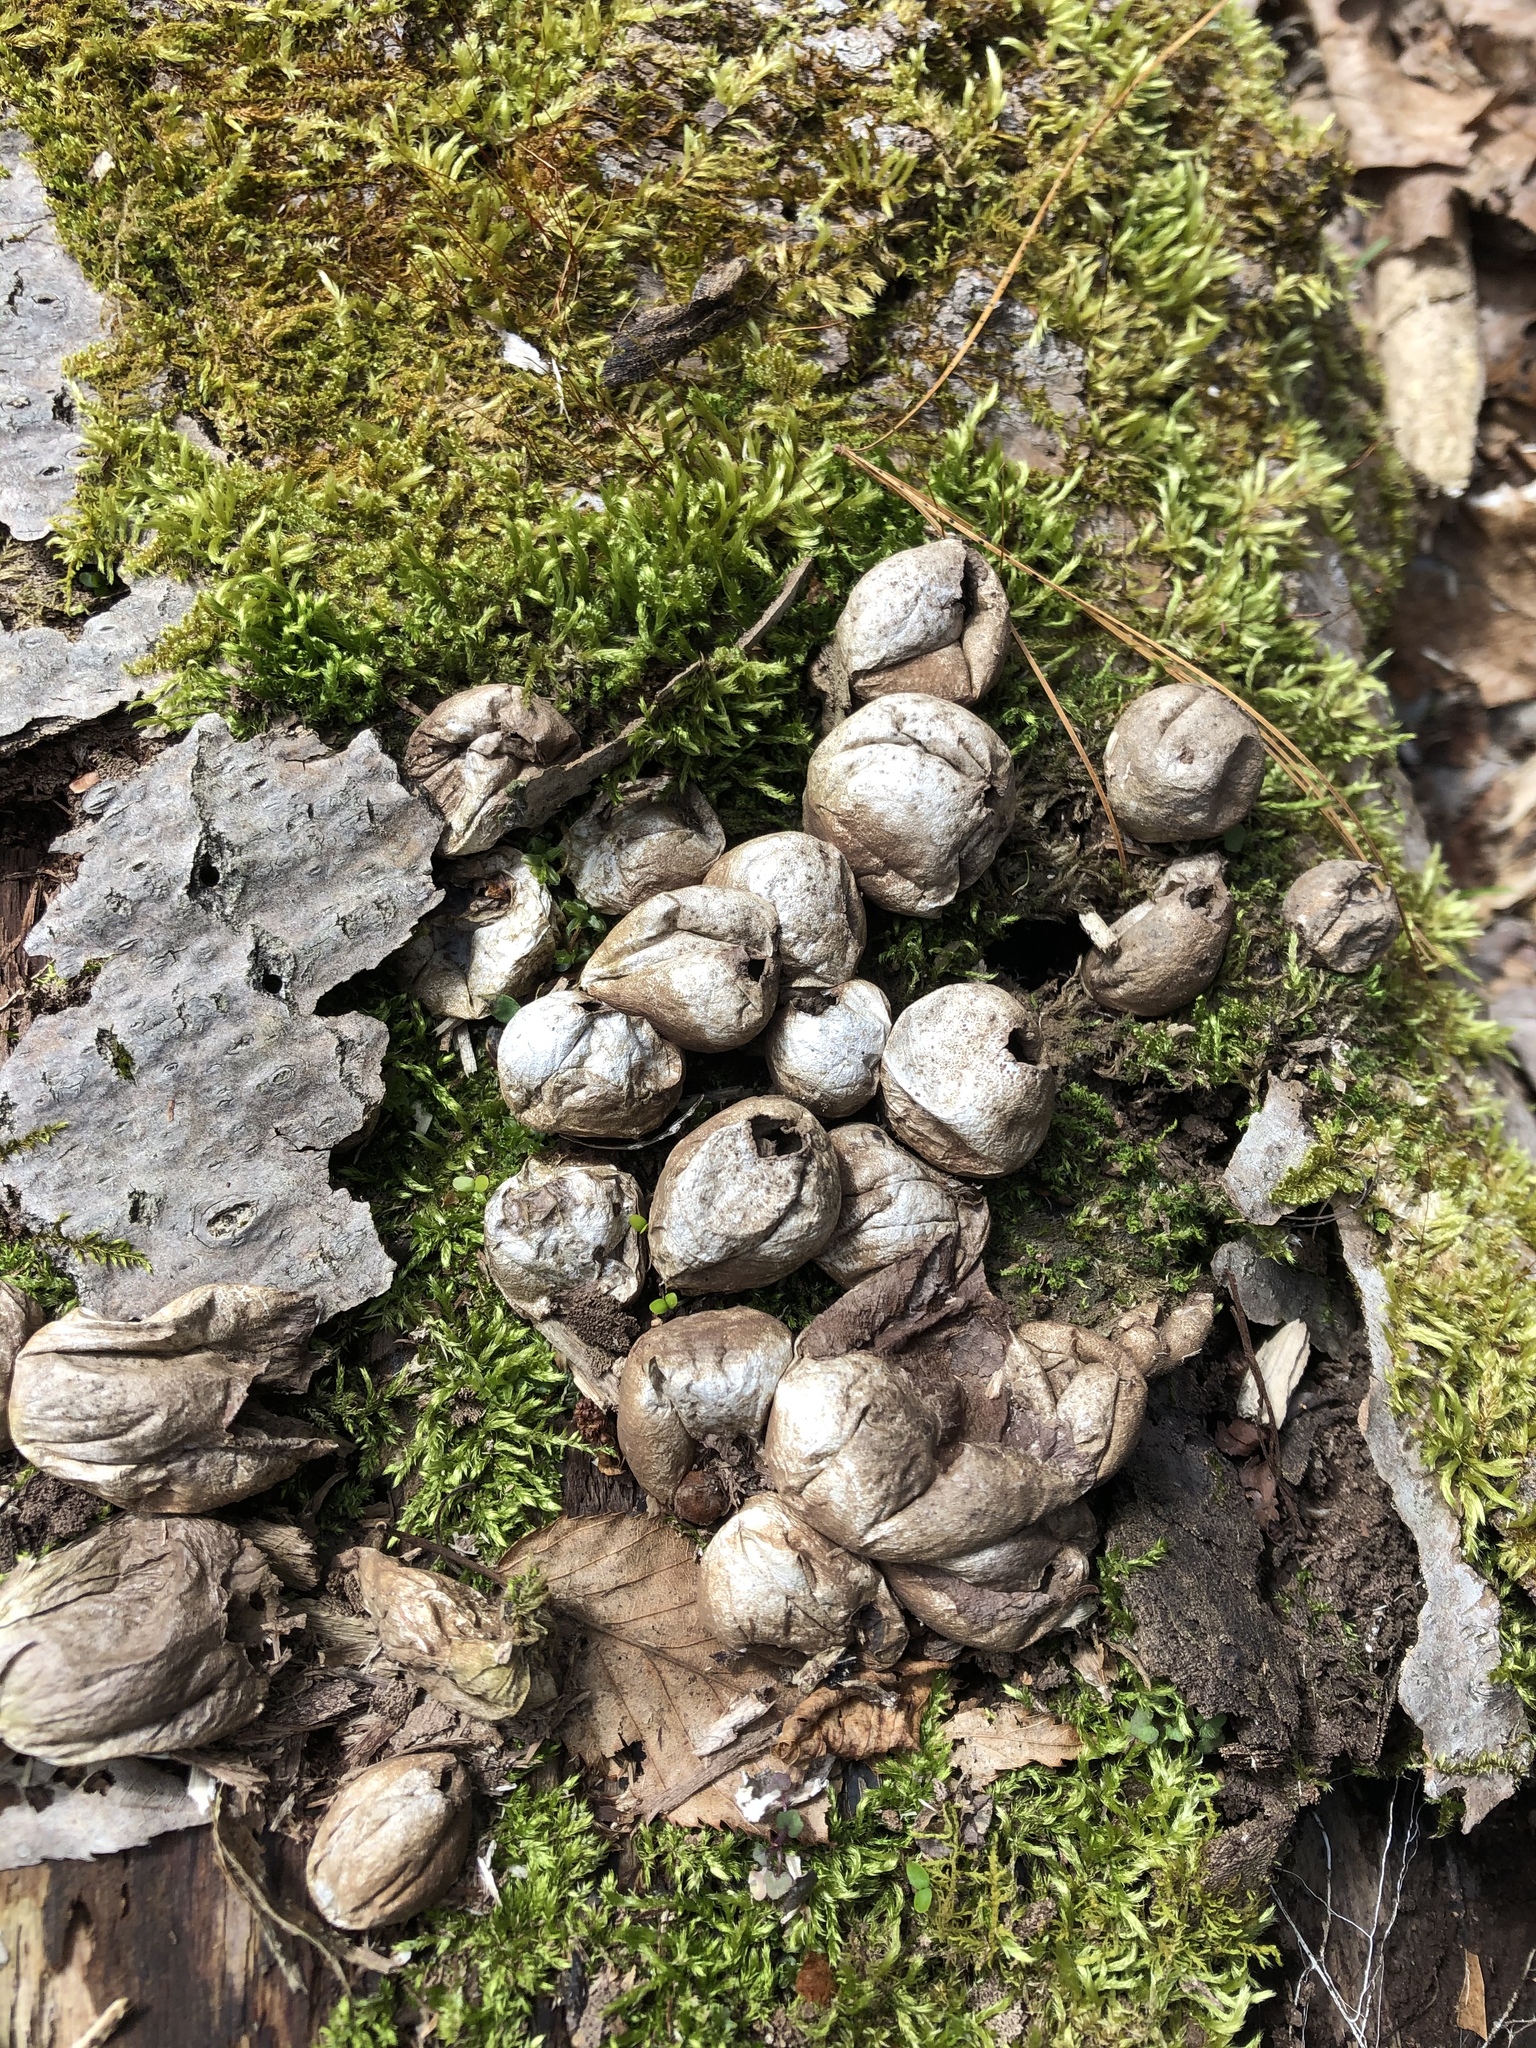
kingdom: Fungi
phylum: Basidiomycota
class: Agaricomycetes
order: Agaricales
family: Lycoperdaceae
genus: Apioperdon
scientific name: Apioperdon pyriforme
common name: Pear-shaped puffball
